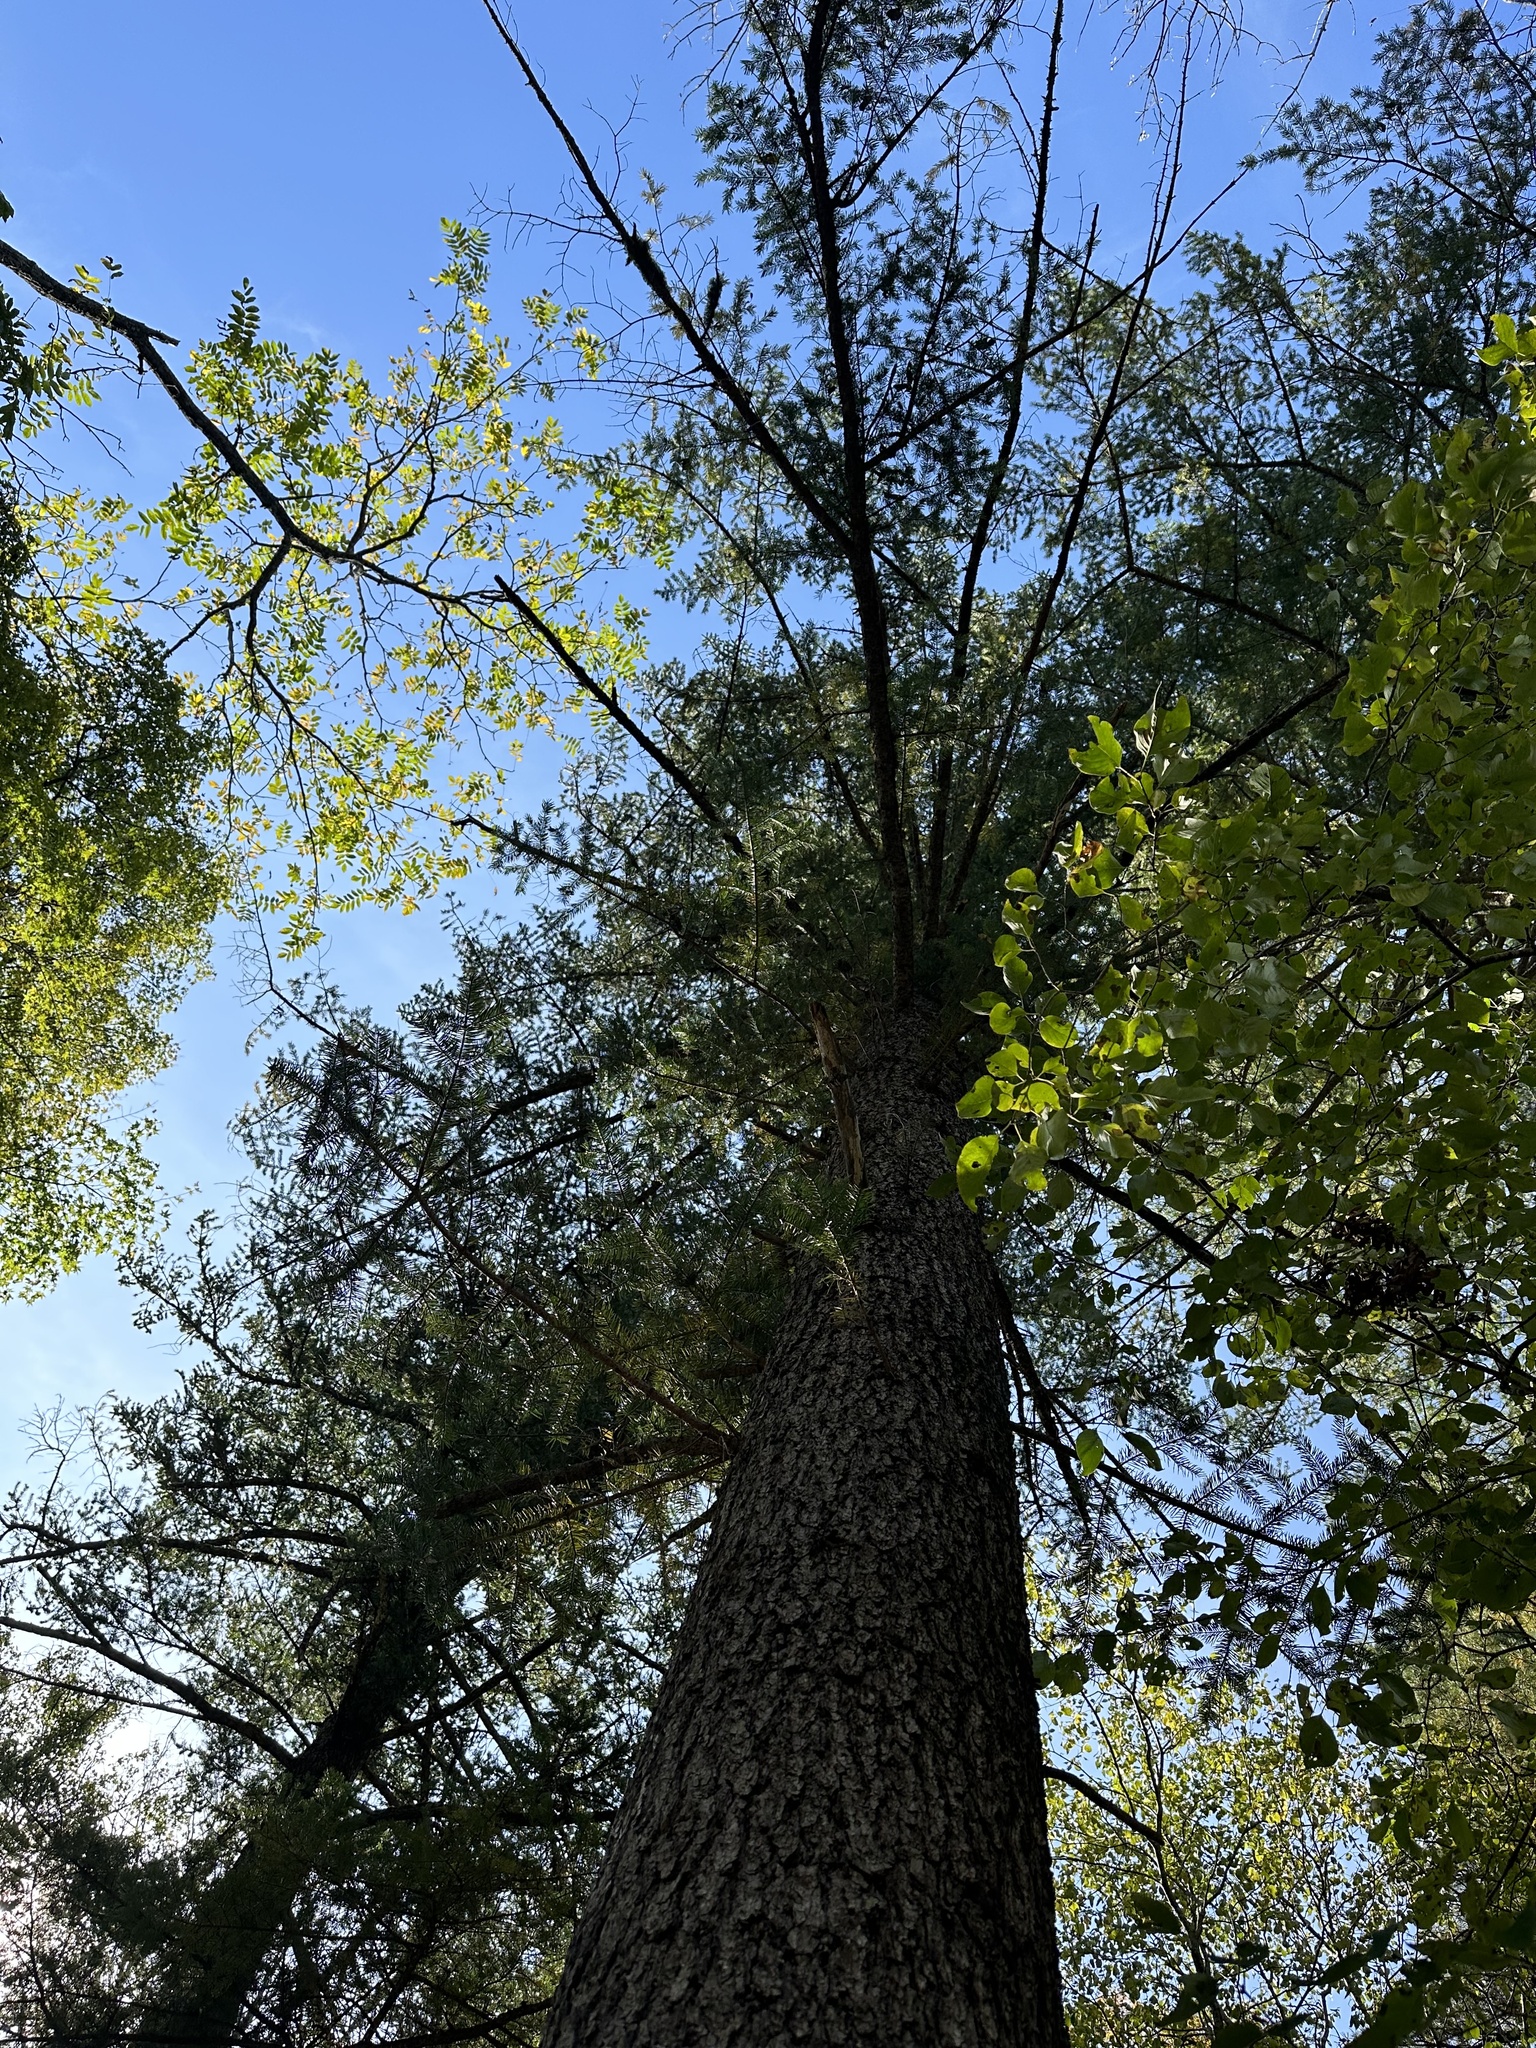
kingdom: Plantae
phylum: Tracheophyta
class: Pinopsida
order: Pinales
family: Pinaceae
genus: Abies
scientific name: Abies holophylla
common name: Manchurian fir
